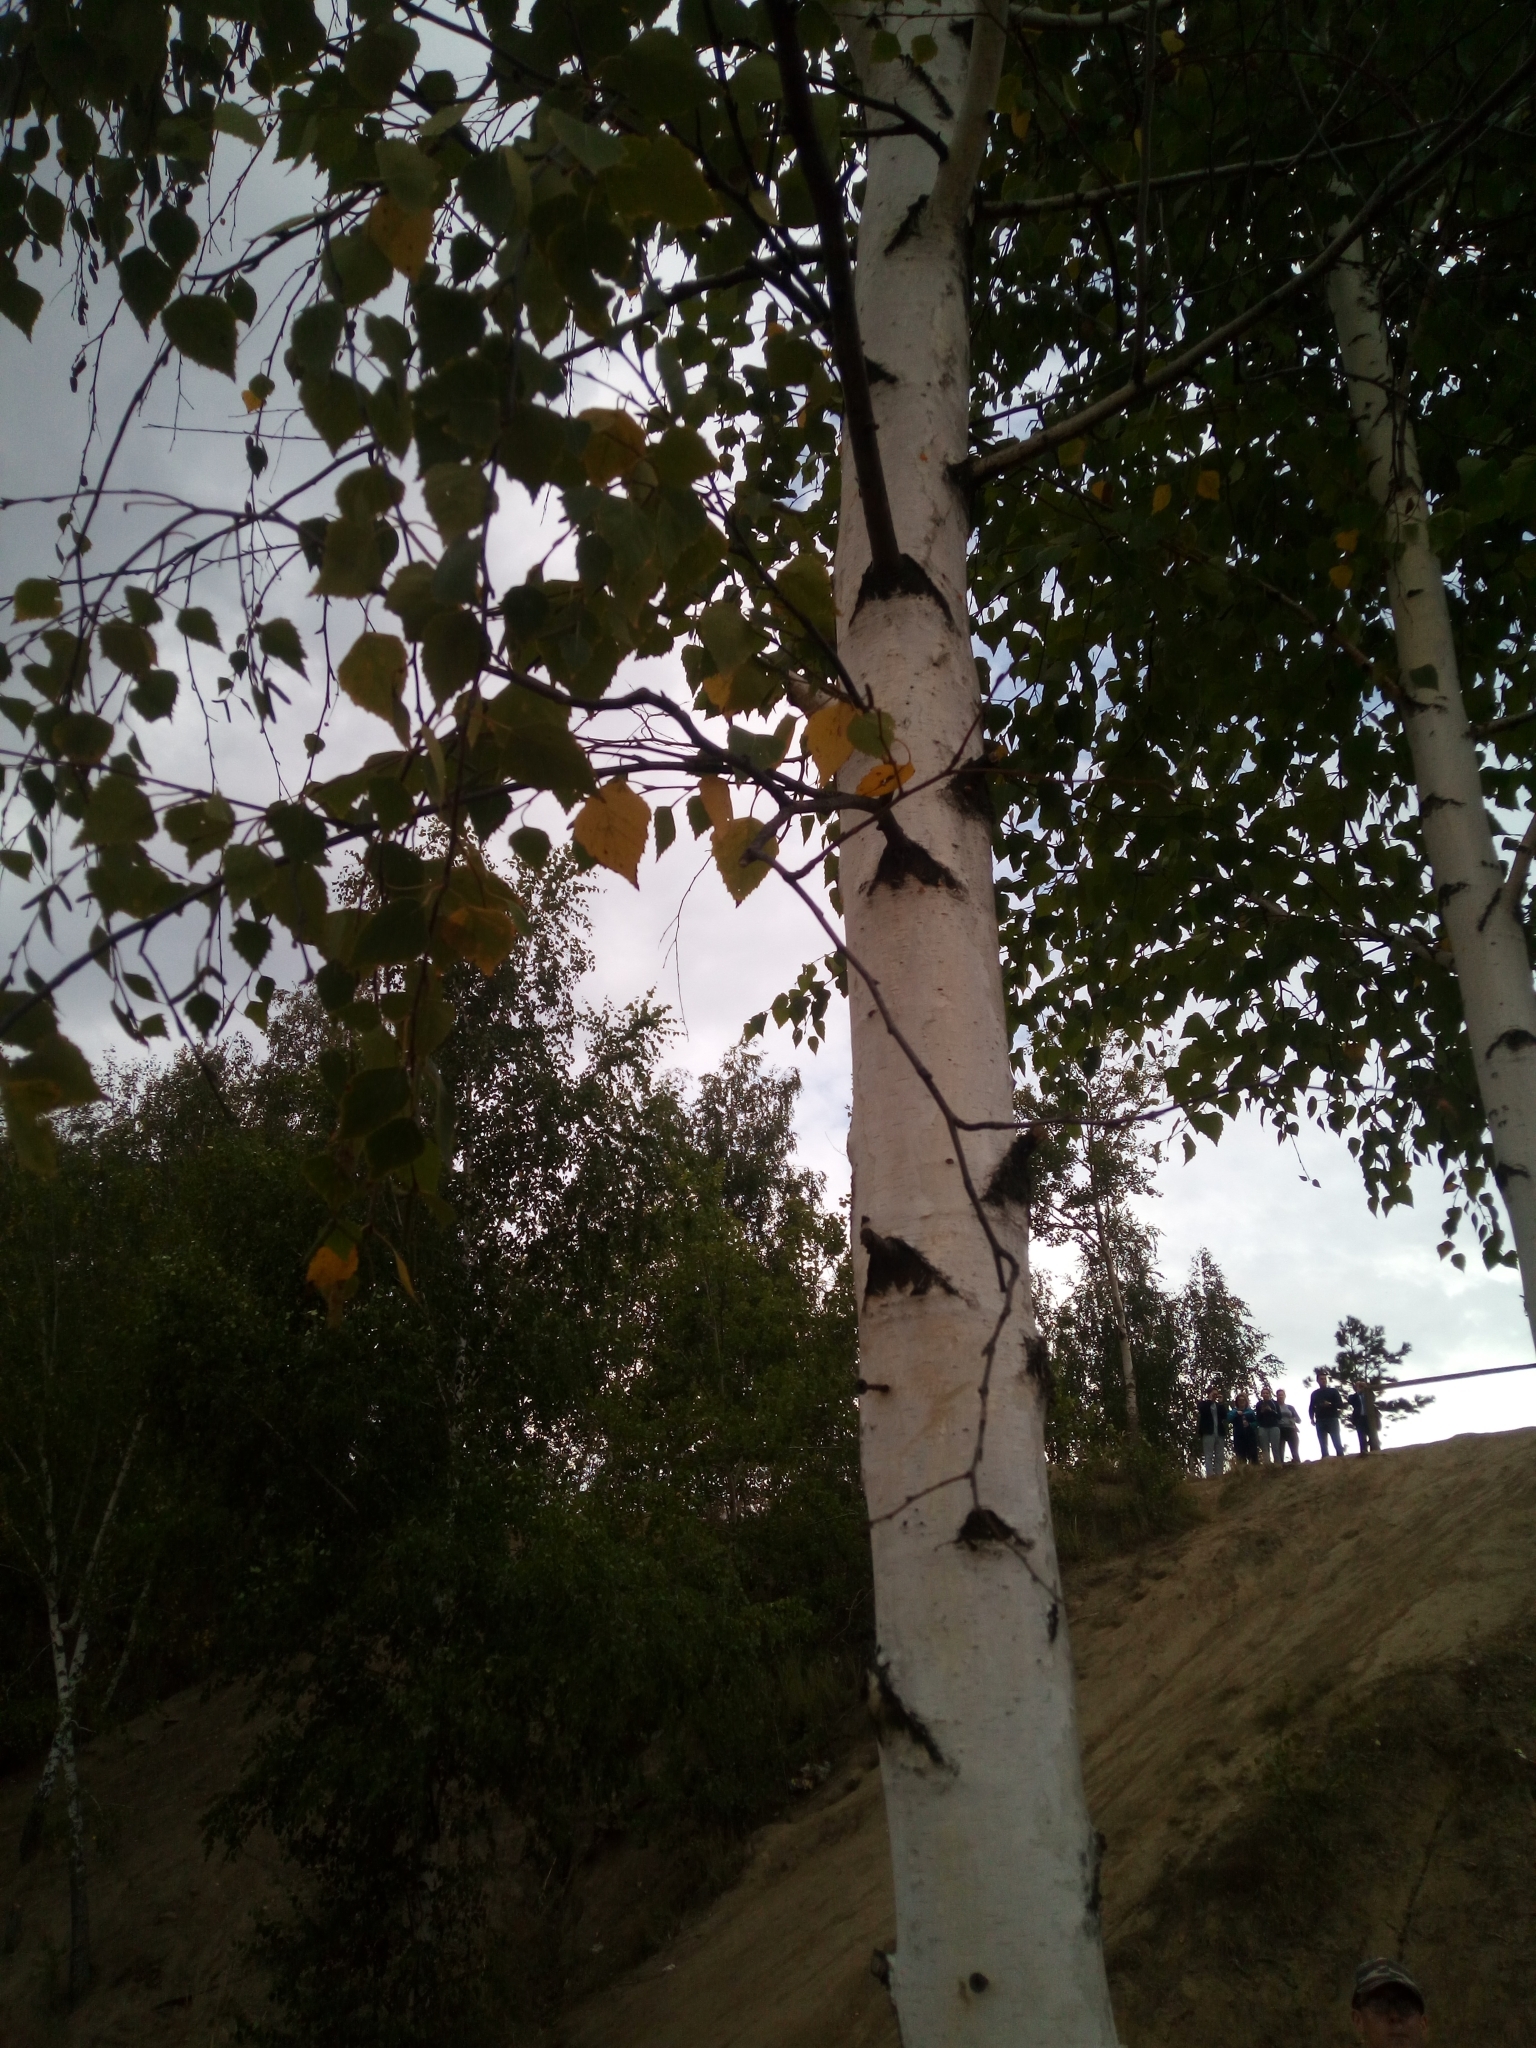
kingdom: Plantae
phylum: Tracheophyta
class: Magnoliopsida
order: Fagales
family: Betulaceae
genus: Betula
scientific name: Betula pendula
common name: Silver birch
